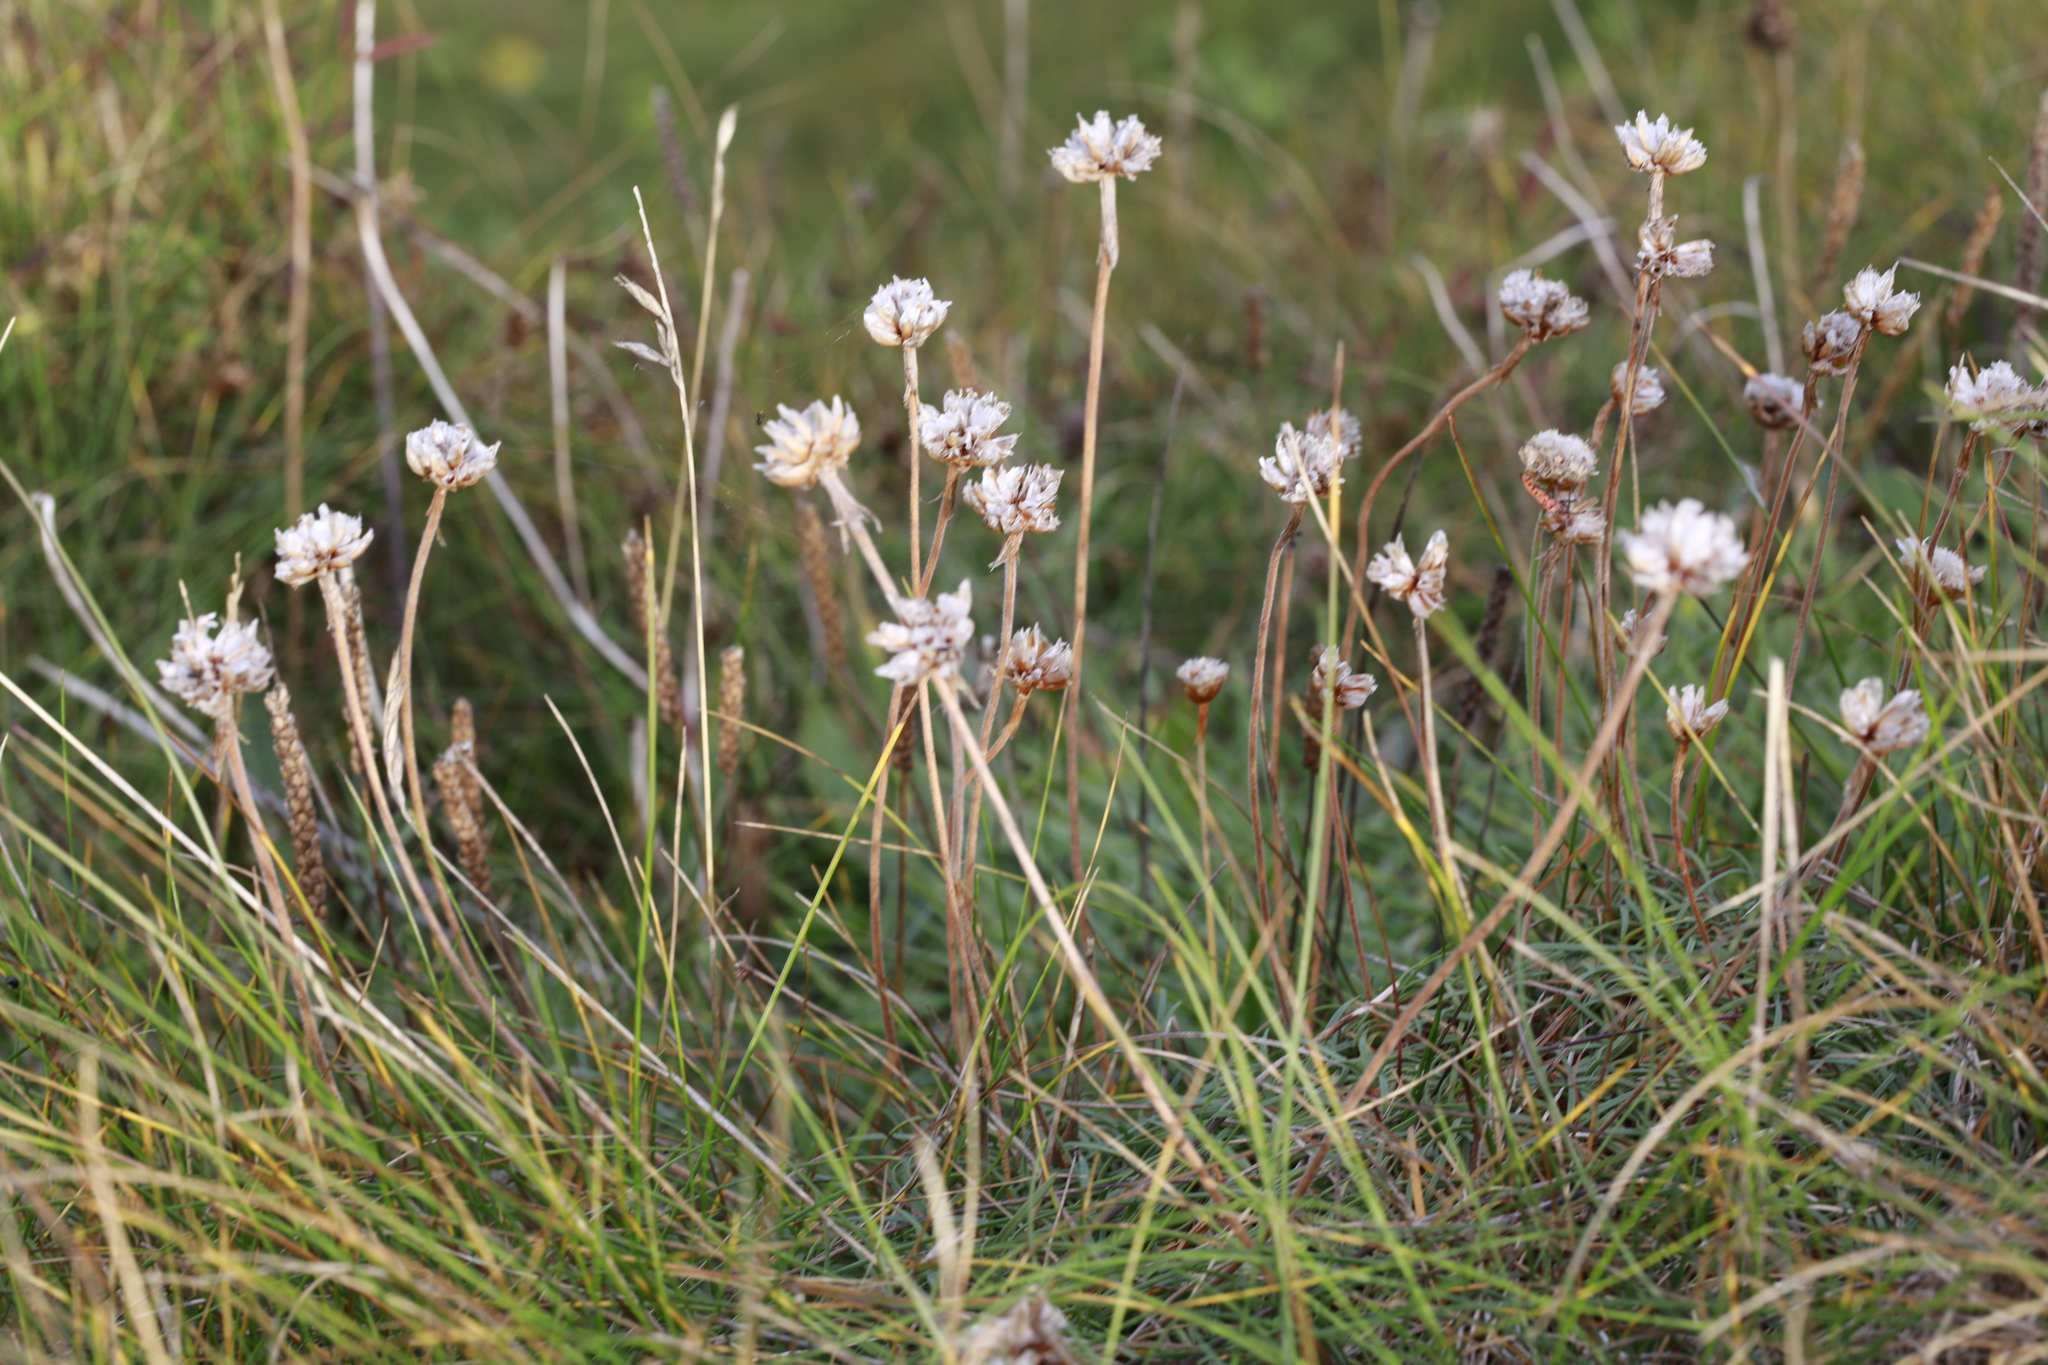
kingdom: Plantae
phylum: Tracheophyta
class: Magnoliopsida
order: Caryophyllales
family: Plumbaginaceae
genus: Armeria
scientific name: Armeria maritima
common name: Thrift
